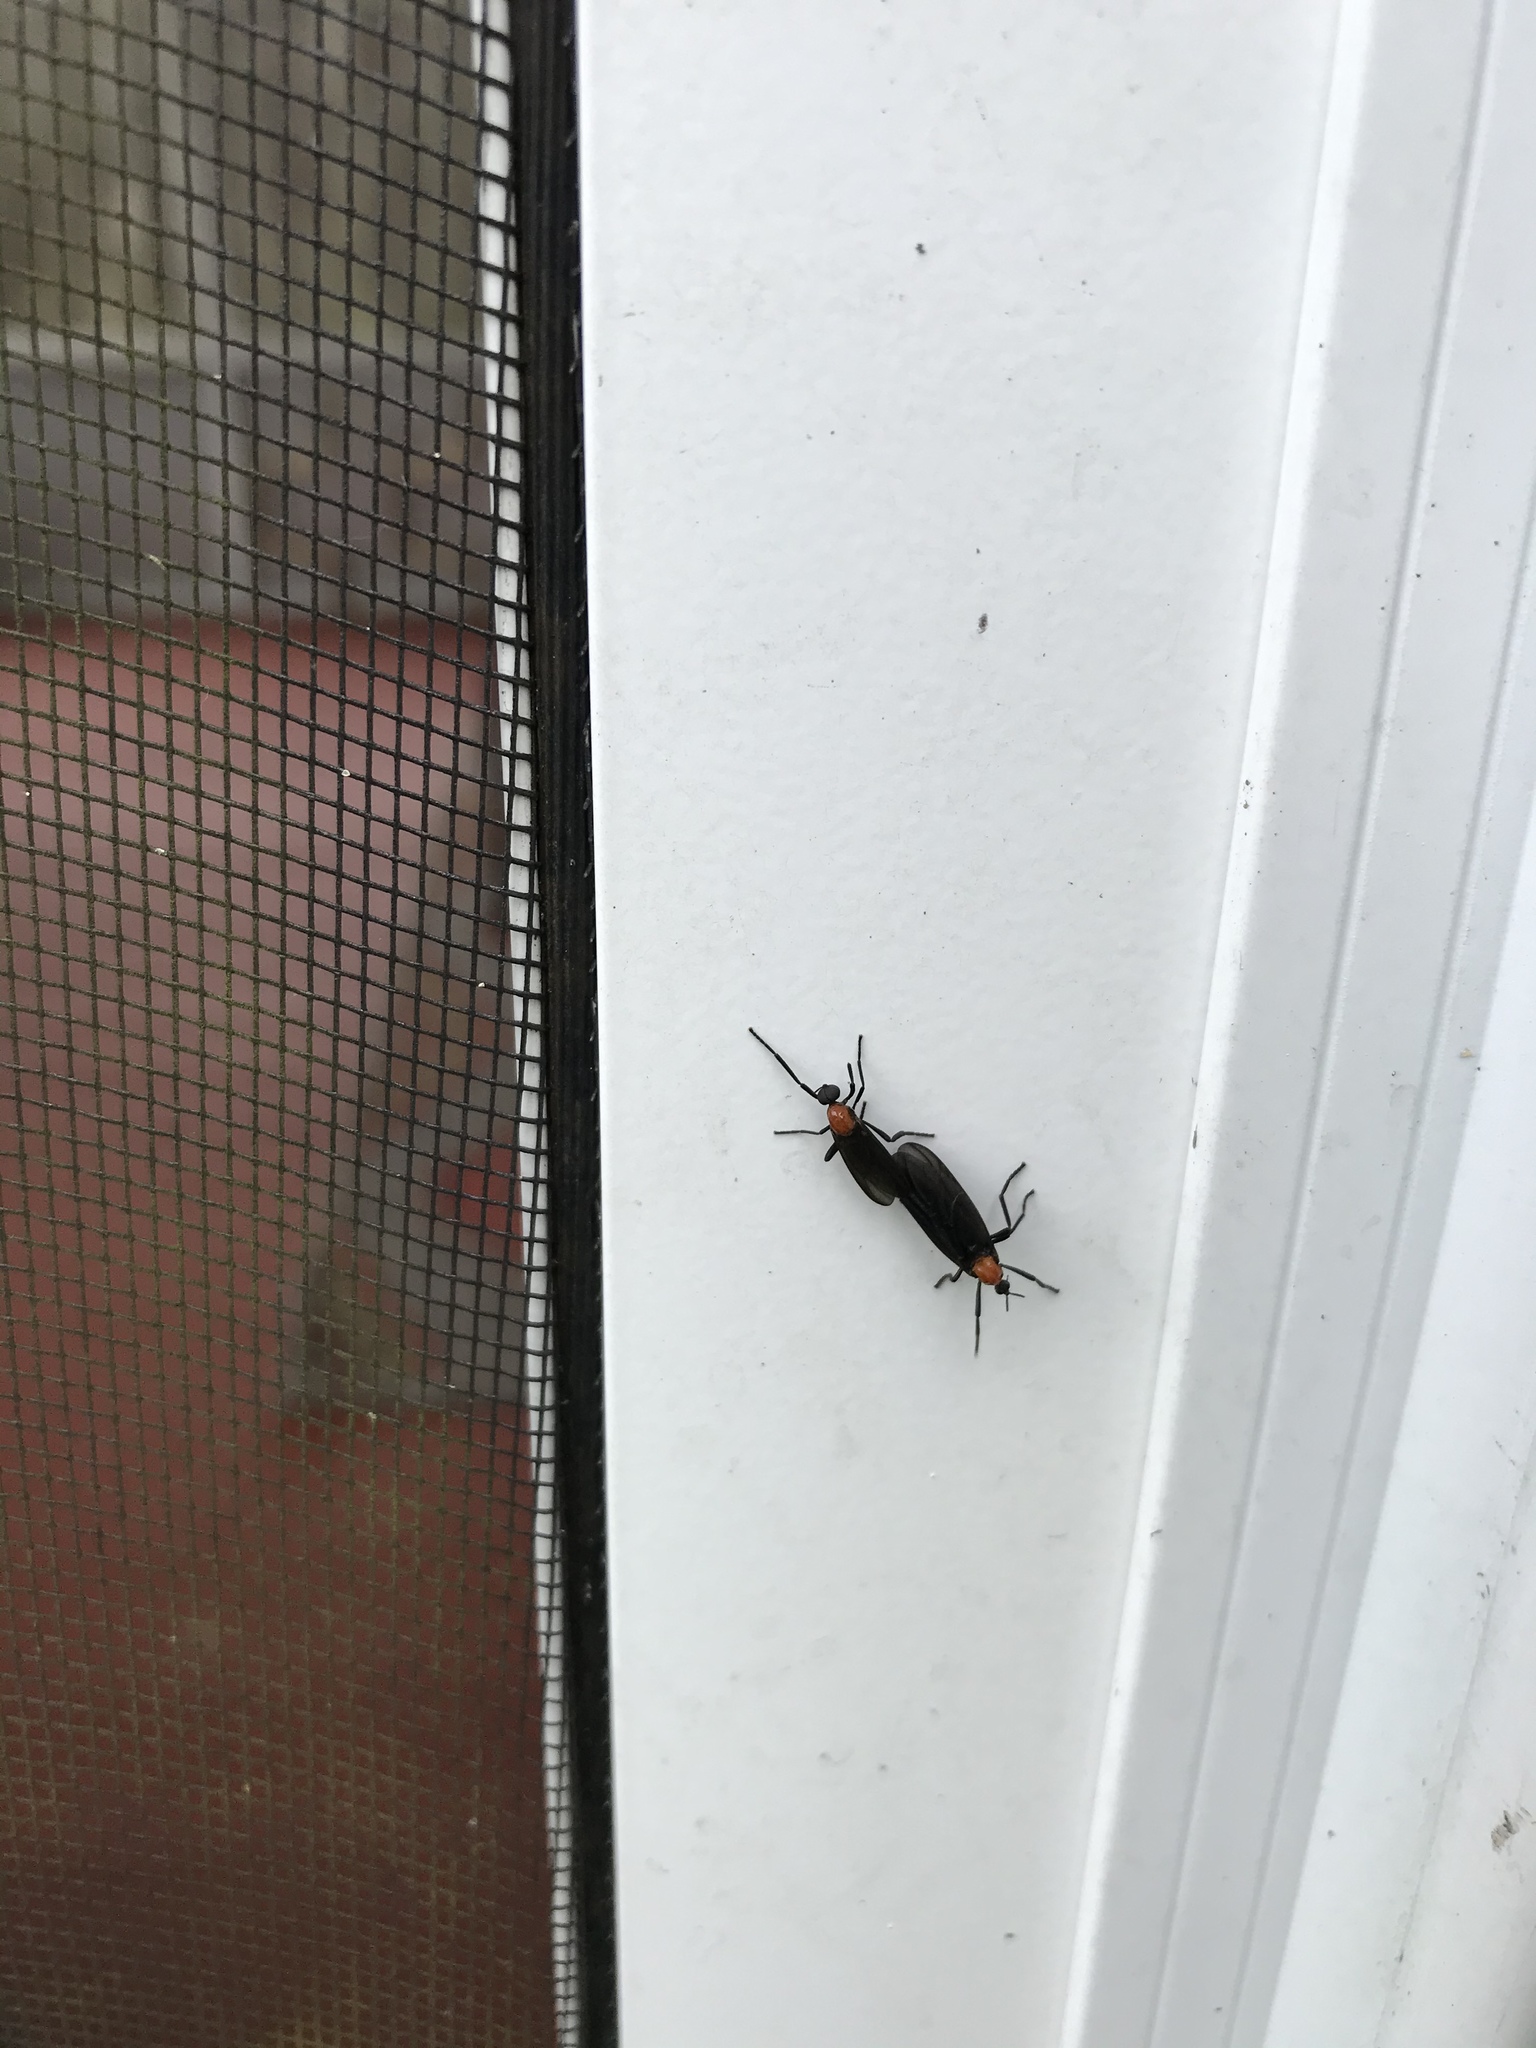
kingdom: Animalia
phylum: Arthropoda
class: Insecta
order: Diptera
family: Bibionidae
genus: Plecia
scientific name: Plecia nearctica
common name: March fly
